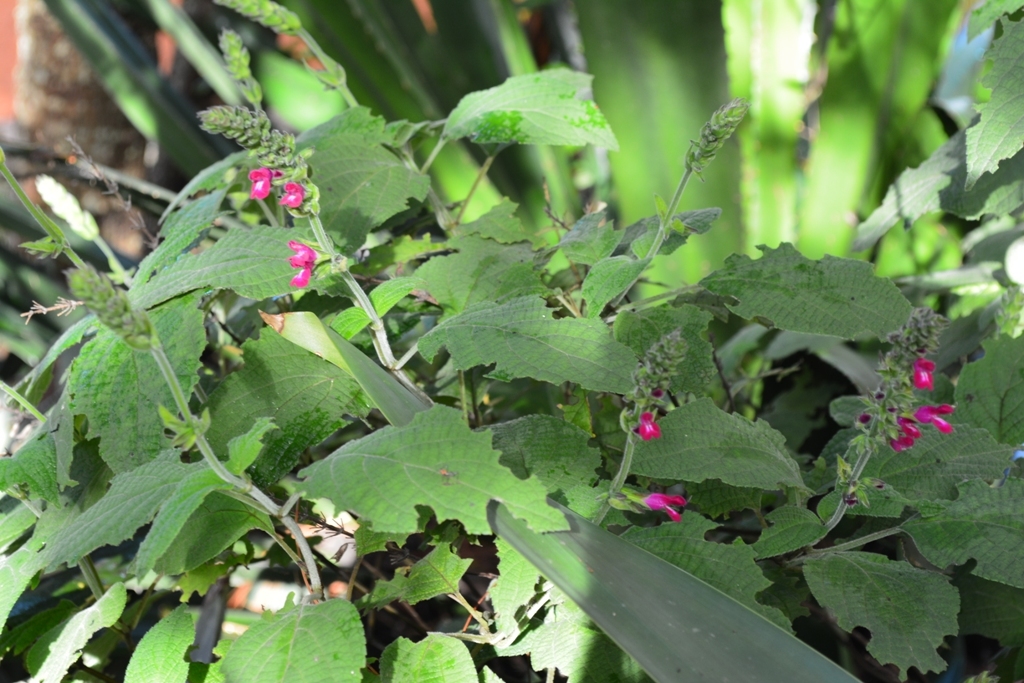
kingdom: Plantae
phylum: Tracheophyta
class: Magnoliopsida
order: Lamiales
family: Lamiaceae
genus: Salvia
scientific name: Salvia chiapensis
